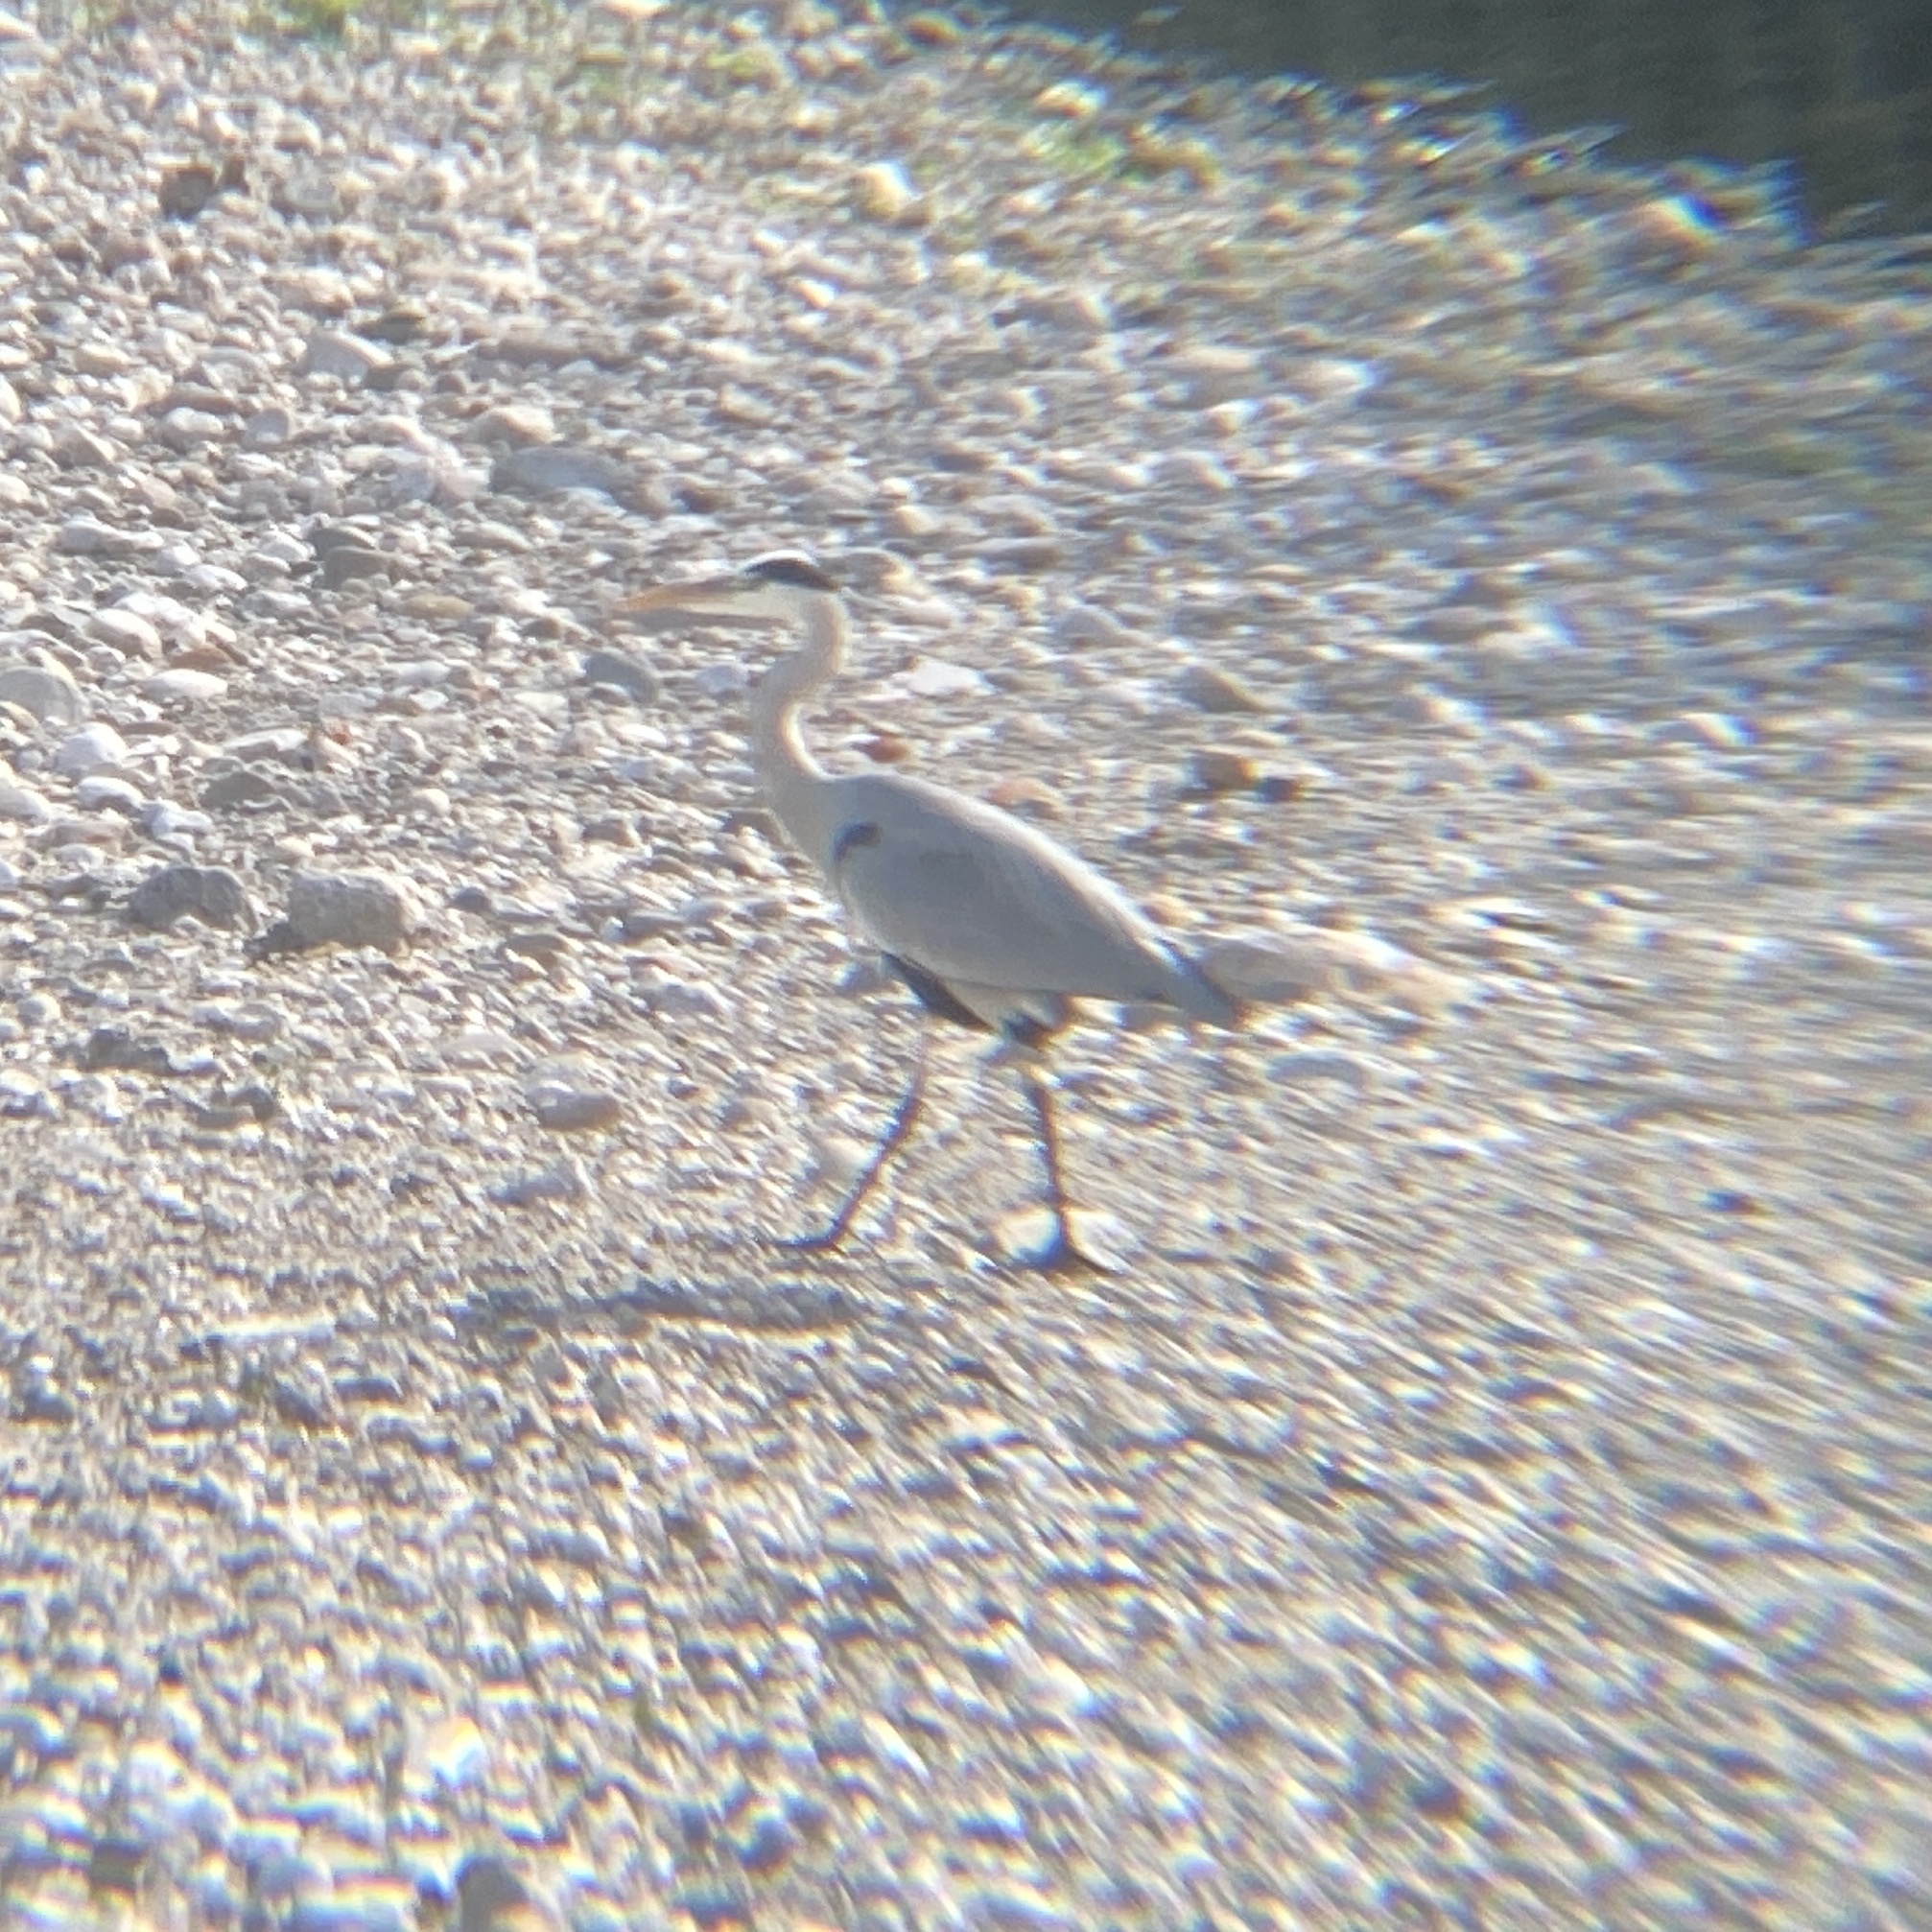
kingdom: Animalia
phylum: Chordata
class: Aves
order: Pelecaniformes
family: Ardeidae
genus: Ardea
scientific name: Ardea cinerea
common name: Grey heron
